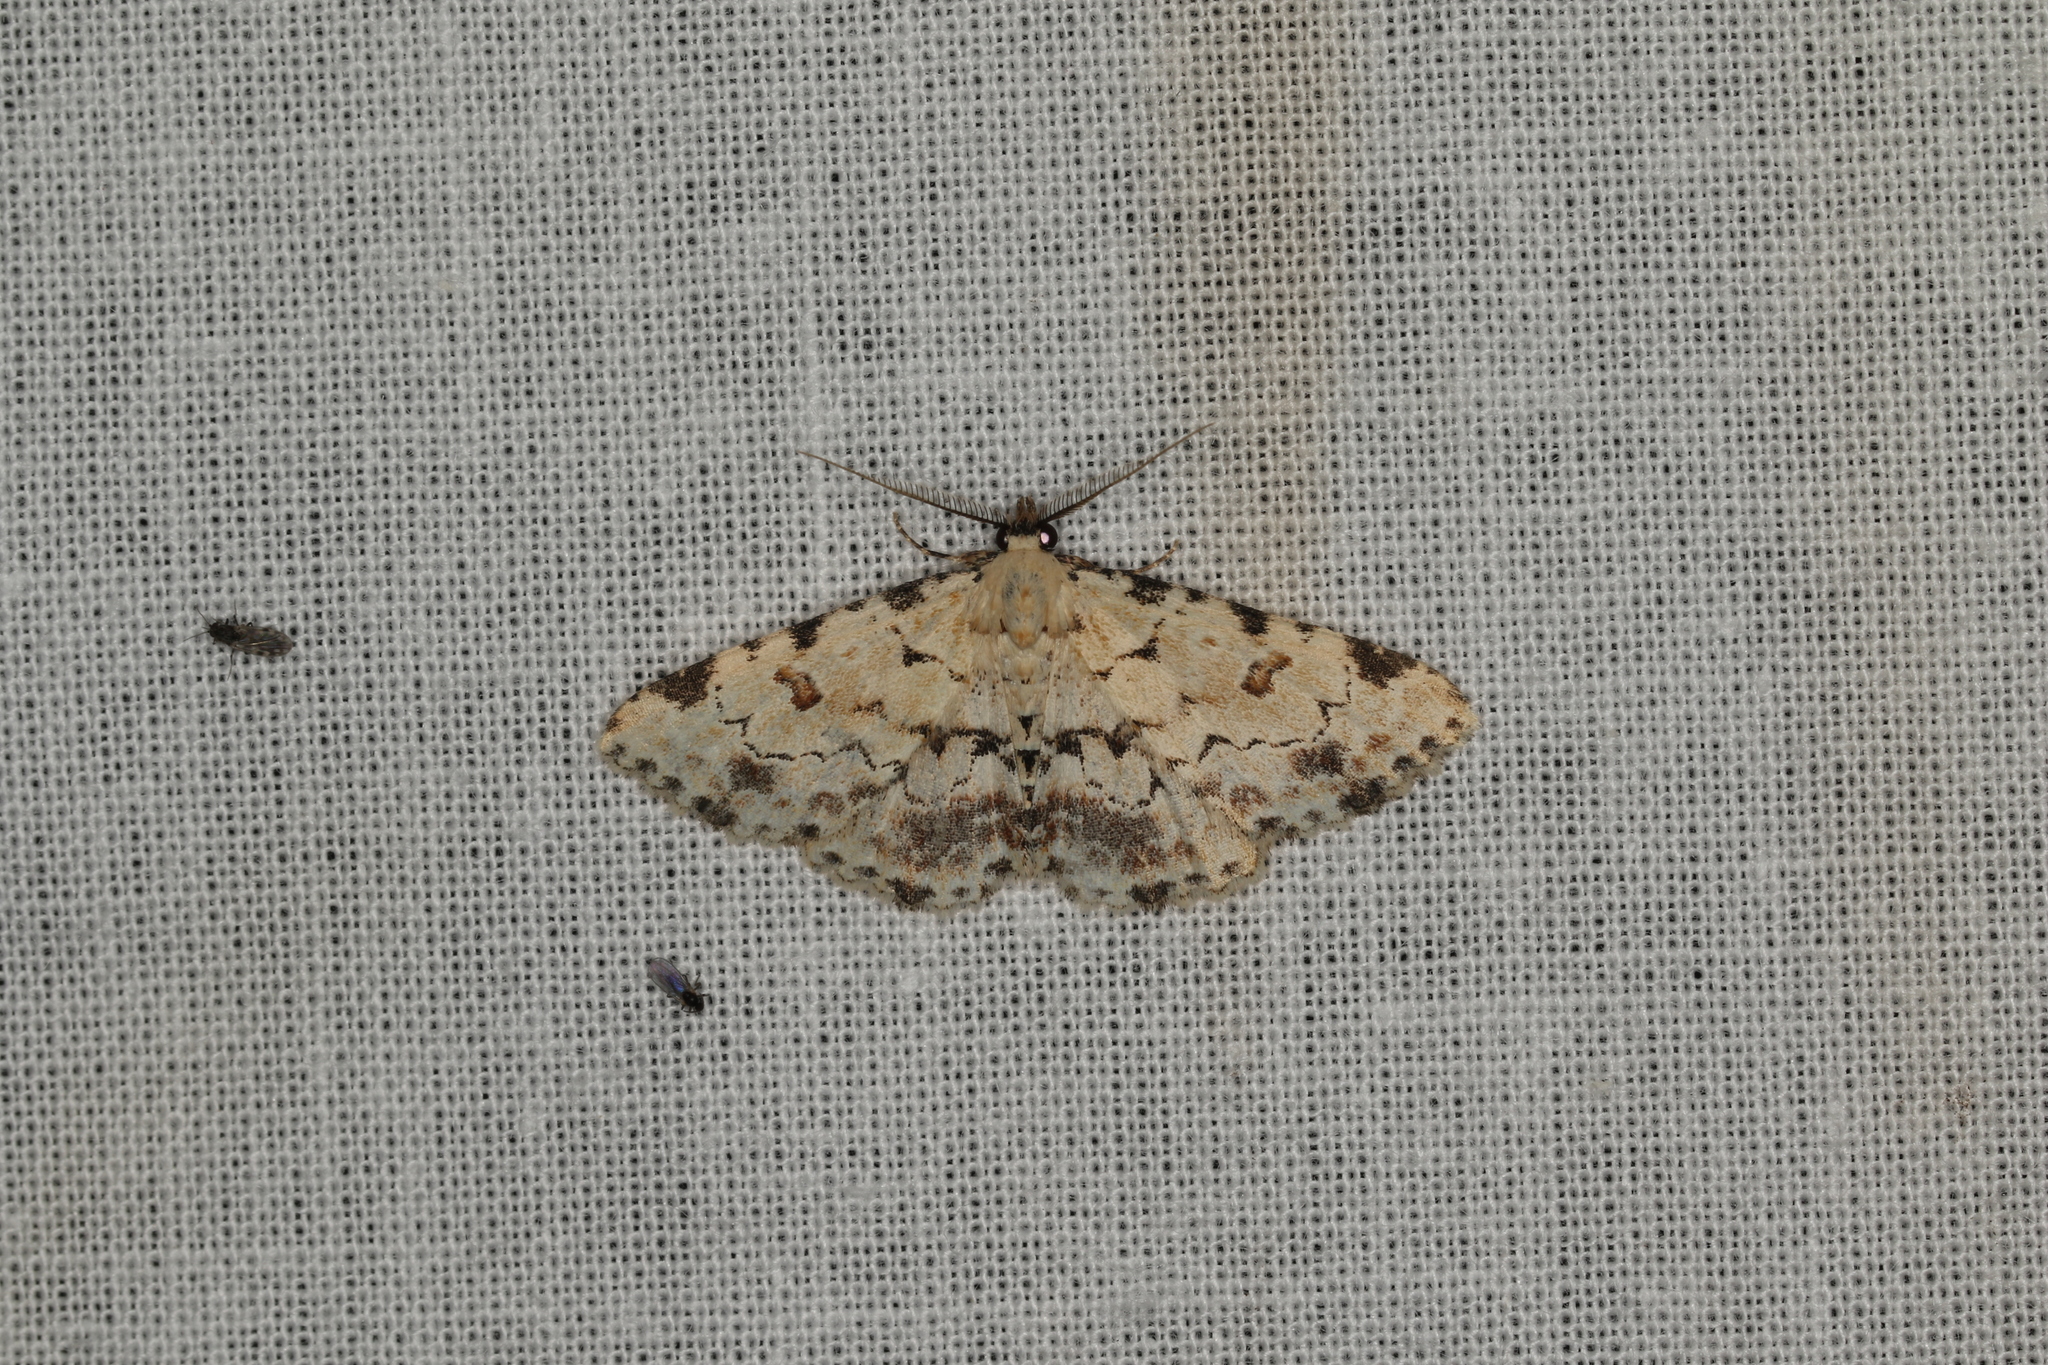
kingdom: Animalia
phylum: Arthropoda
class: Insecta
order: Lepidoptera
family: Erebidae
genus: Sandava
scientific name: Sandava scitisignata
